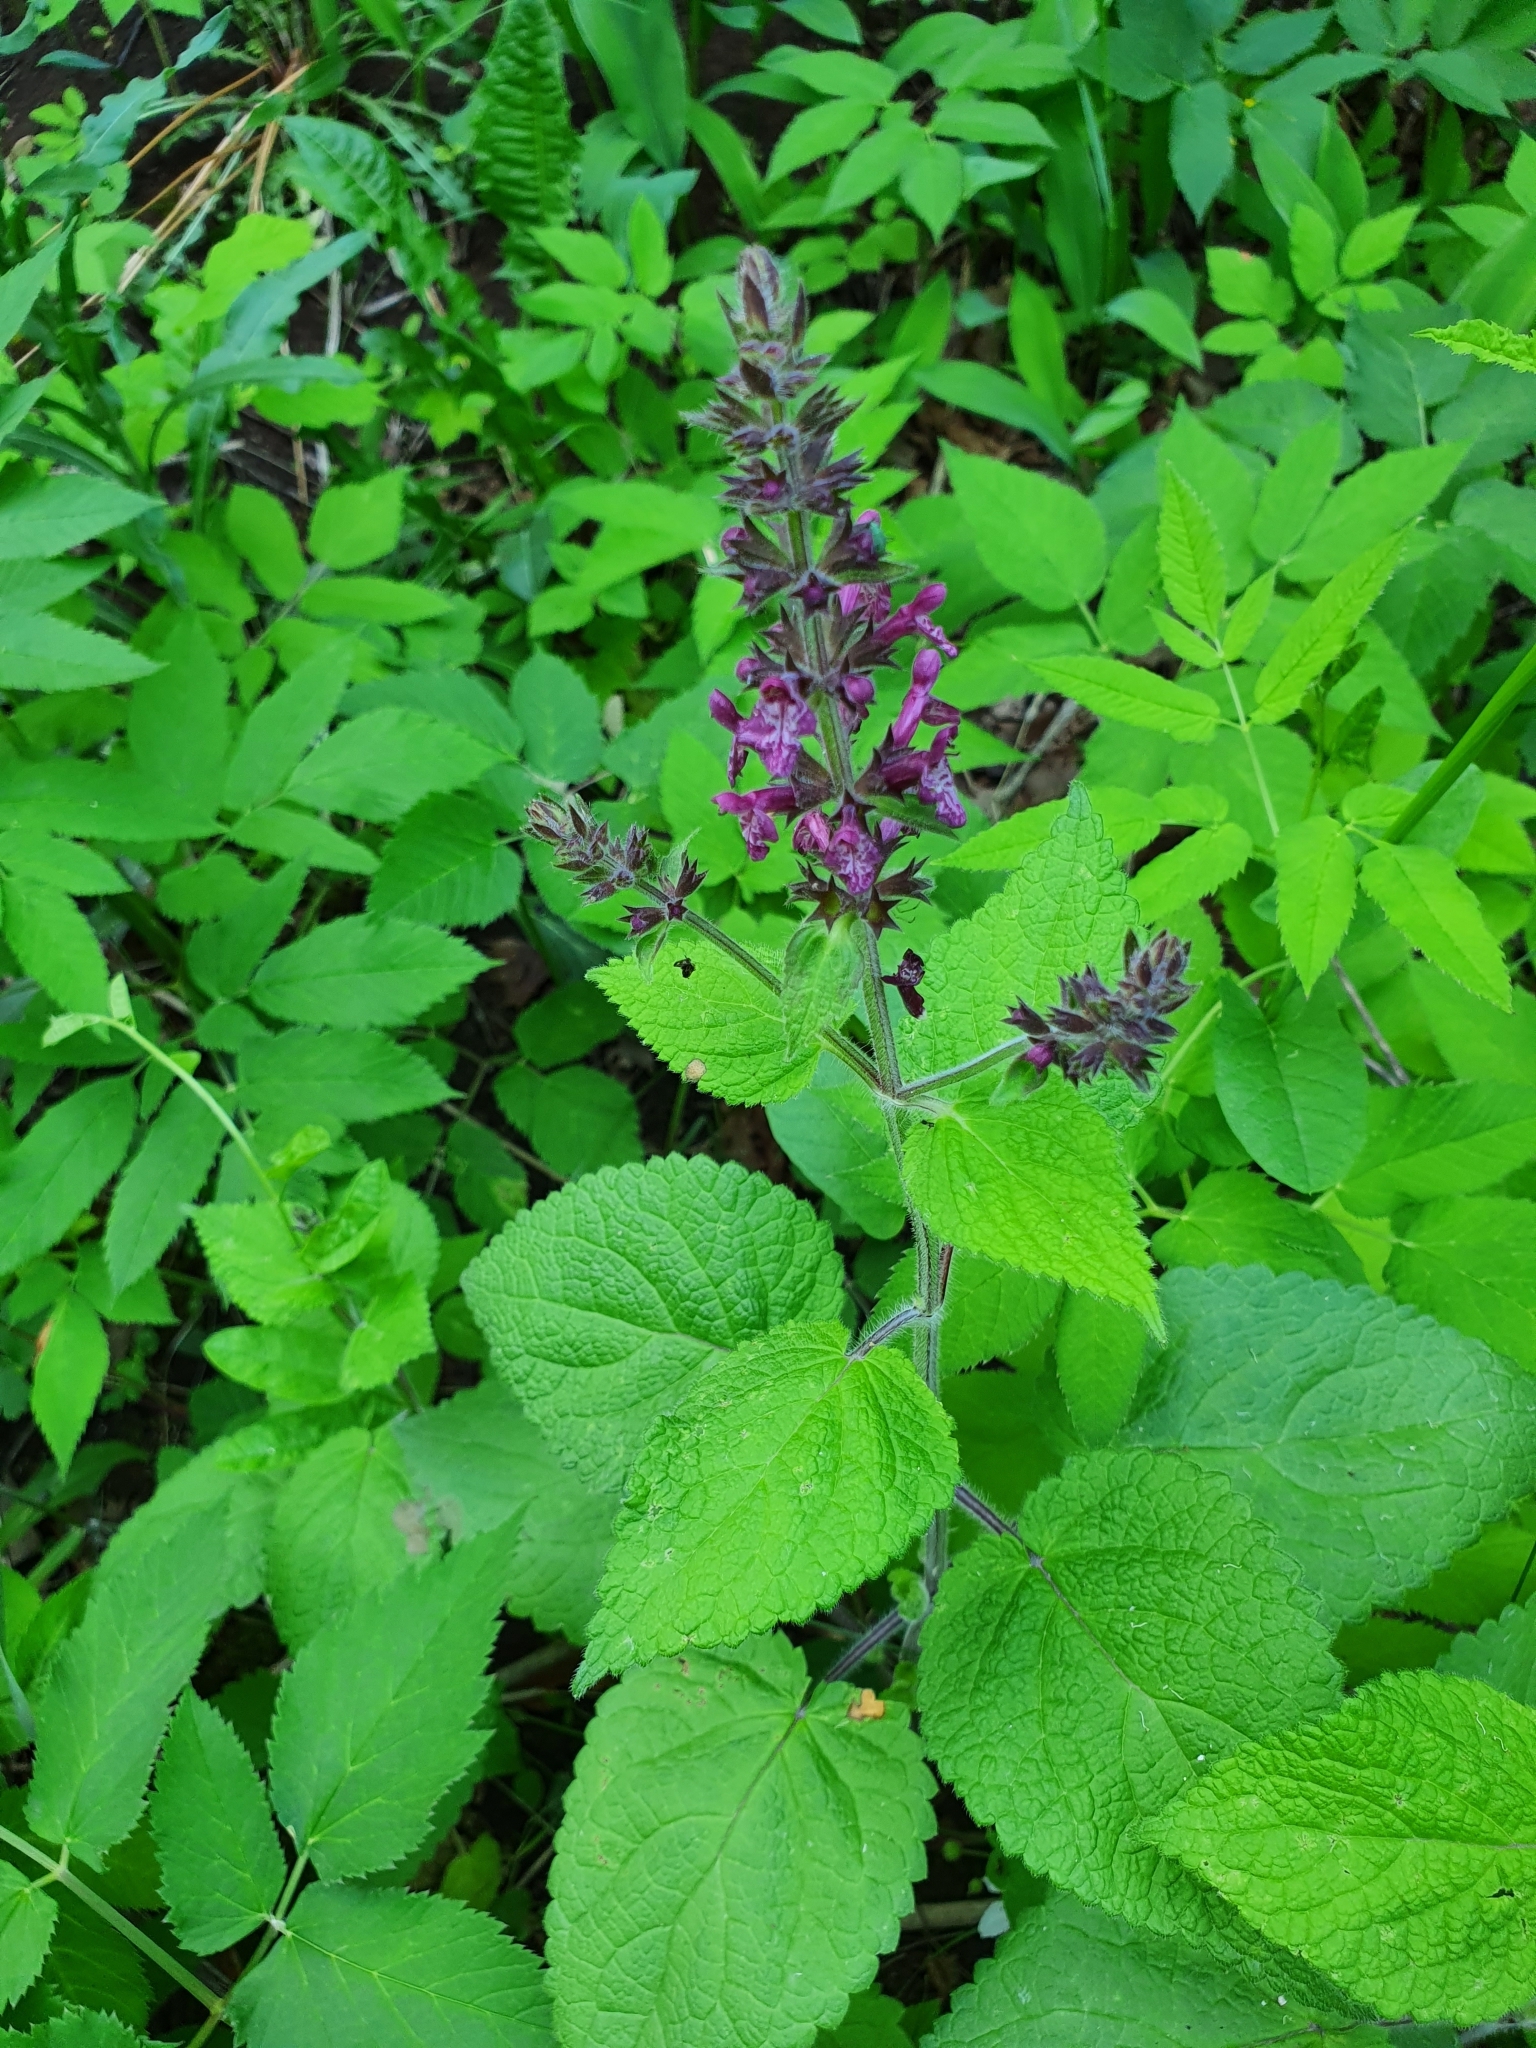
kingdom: Plantae
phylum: Tracheophyta
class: Magnoliopsida
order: Lamiales
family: Lamiaceae
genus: Stachys
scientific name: Stachys sylvatica
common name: Hedge woundwort
